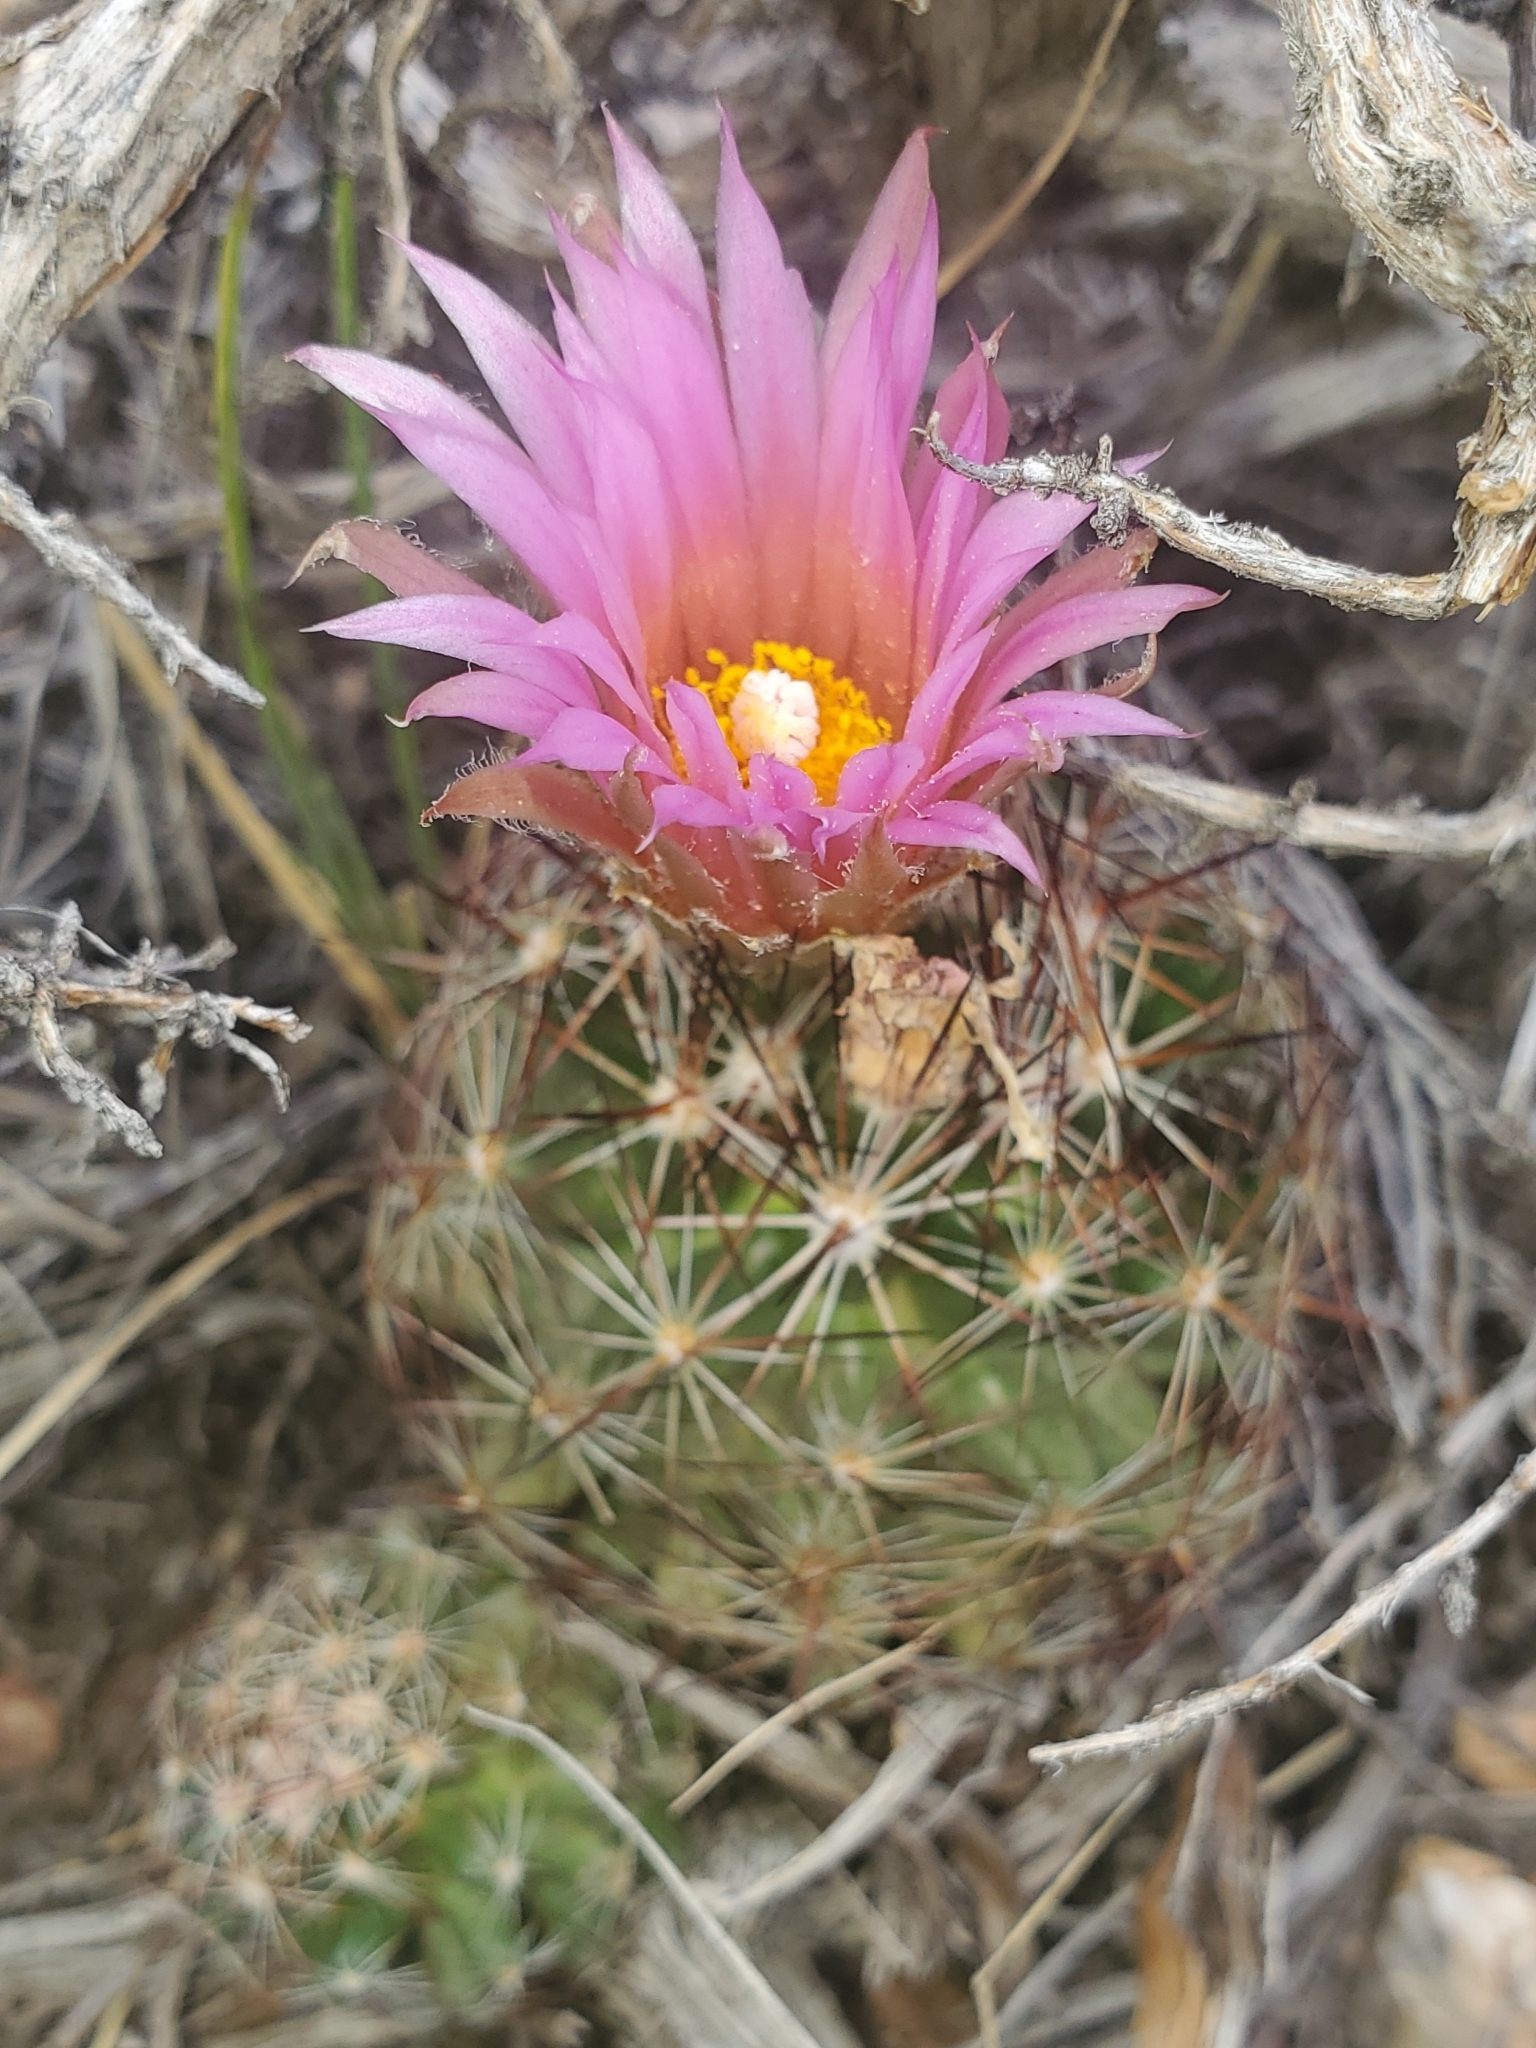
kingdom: Plantae
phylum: Tracheophyta
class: Magnoliopsida
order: Caryophyllales
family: Cactaceae
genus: Pelecyphora
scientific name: Pelecyphora vivipara
